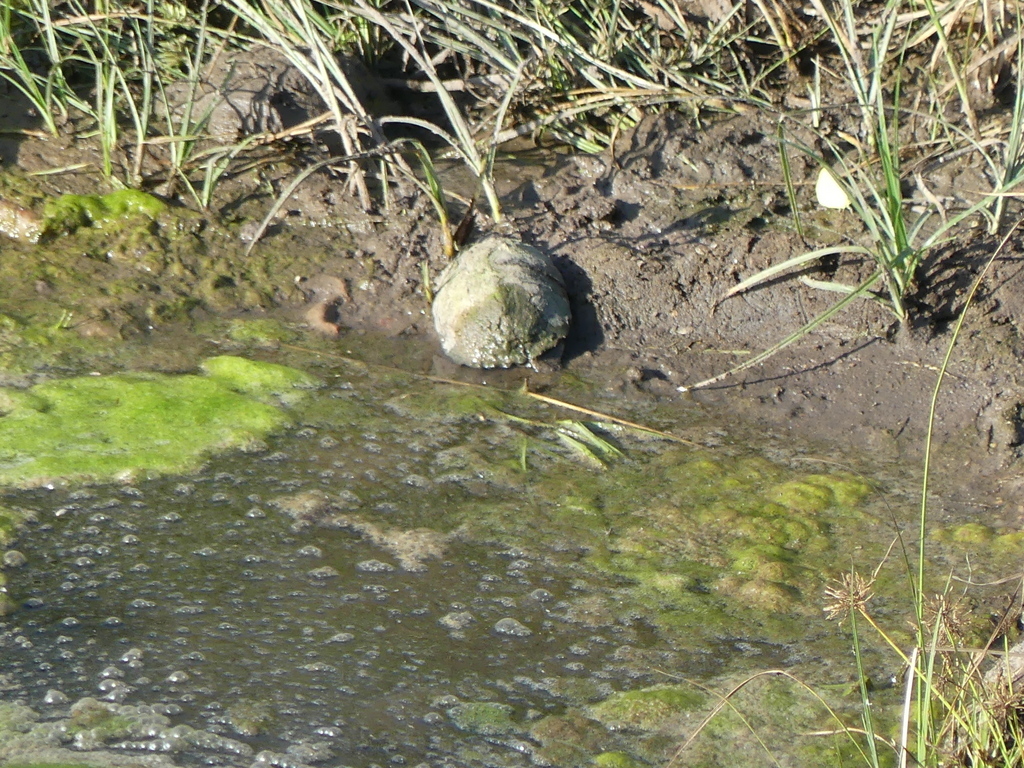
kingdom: Animalia
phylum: Chordata
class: Testudines
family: Pelomedusidae
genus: Pelomedusa
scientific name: Pelomedusa subrufa
